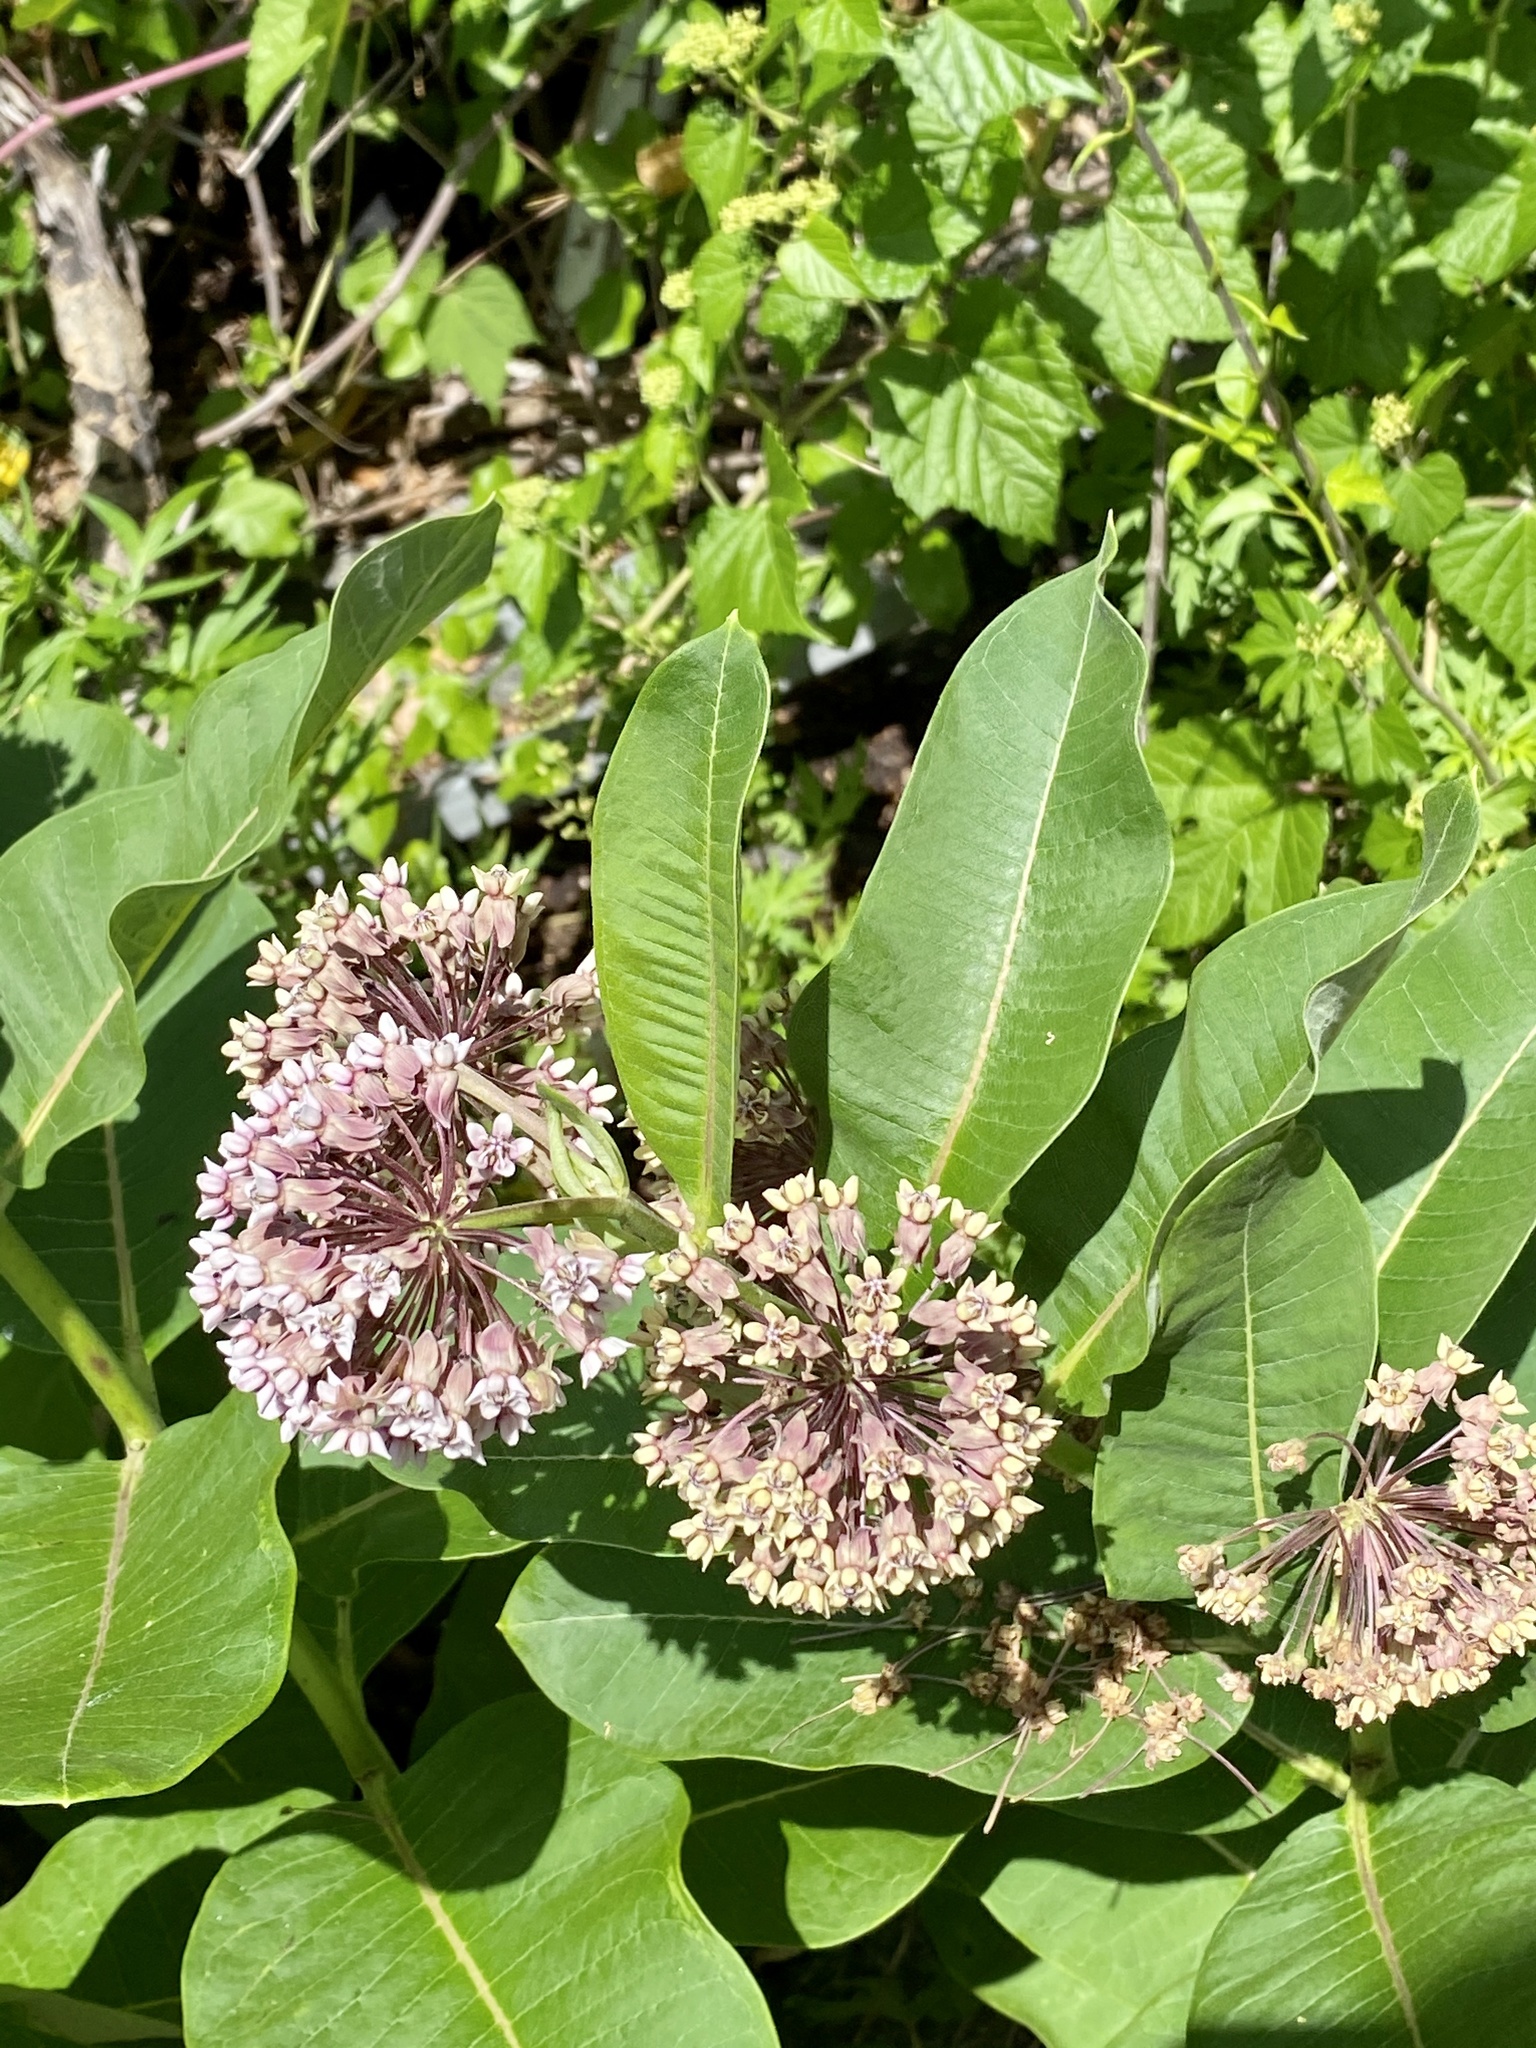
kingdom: Plantae
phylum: Tracheophyta
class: Magnoliopsida
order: Gentianales
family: Apocynaceae
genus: Asclepias
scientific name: Asclepias syriaca
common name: Common milkweed
